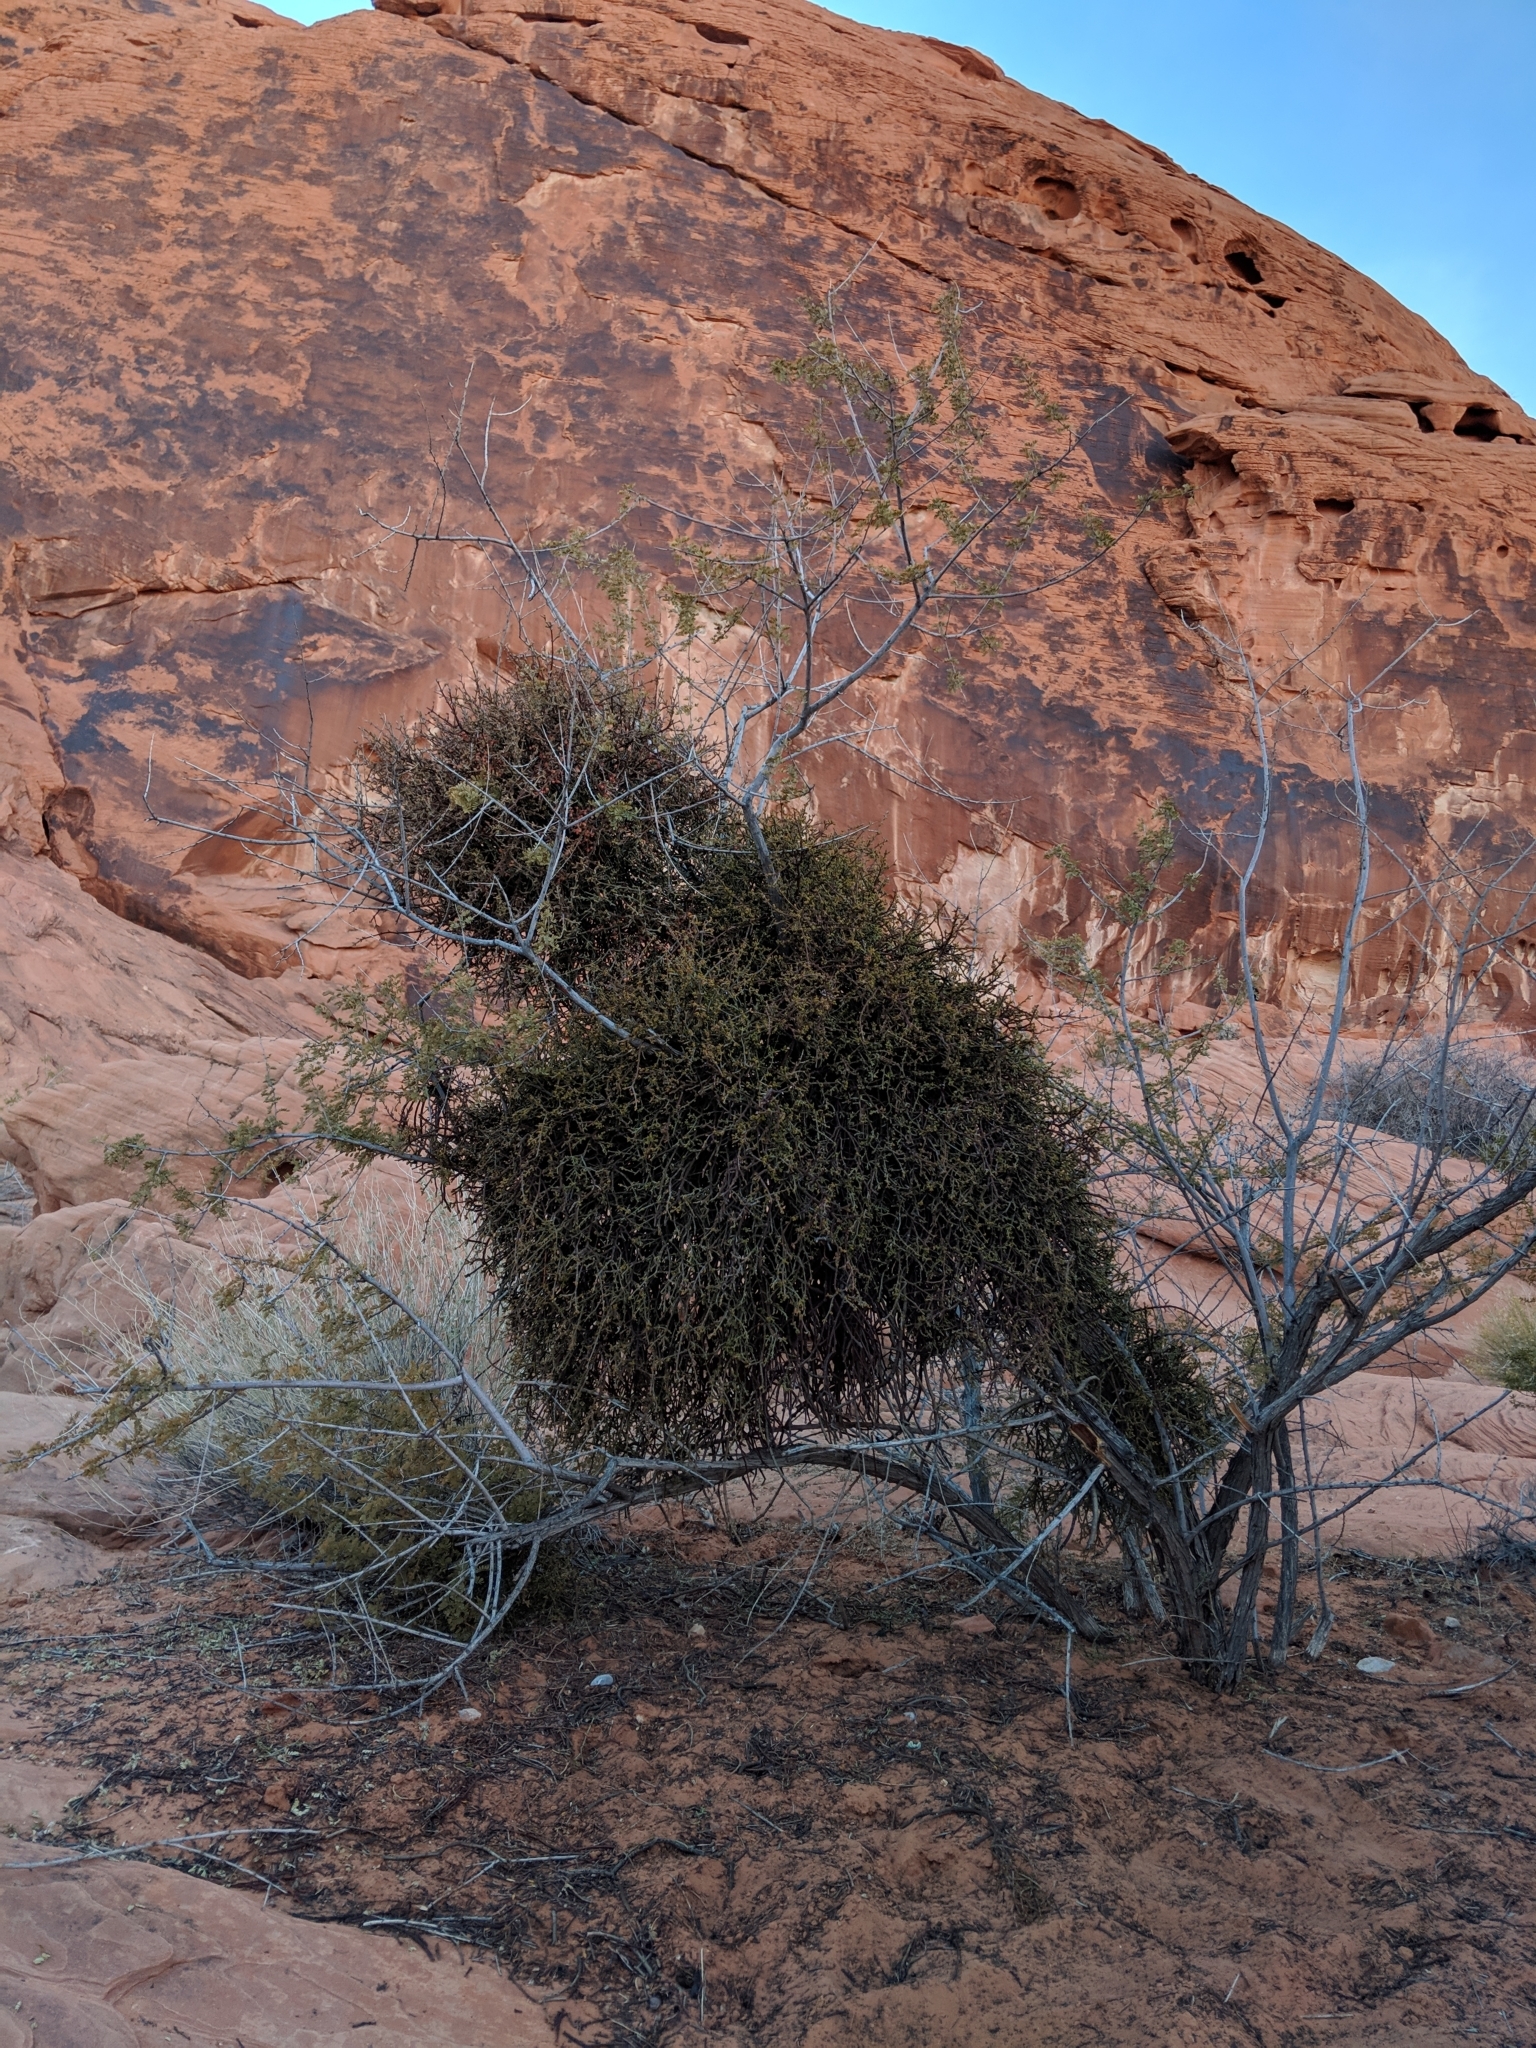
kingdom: Plantae
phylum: Tracheophyta
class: Magnoliopsida
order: Santalales
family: Viscaceae
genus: Phoradendron
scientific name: Phoradendron californicum
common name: Acacia mistletoe
